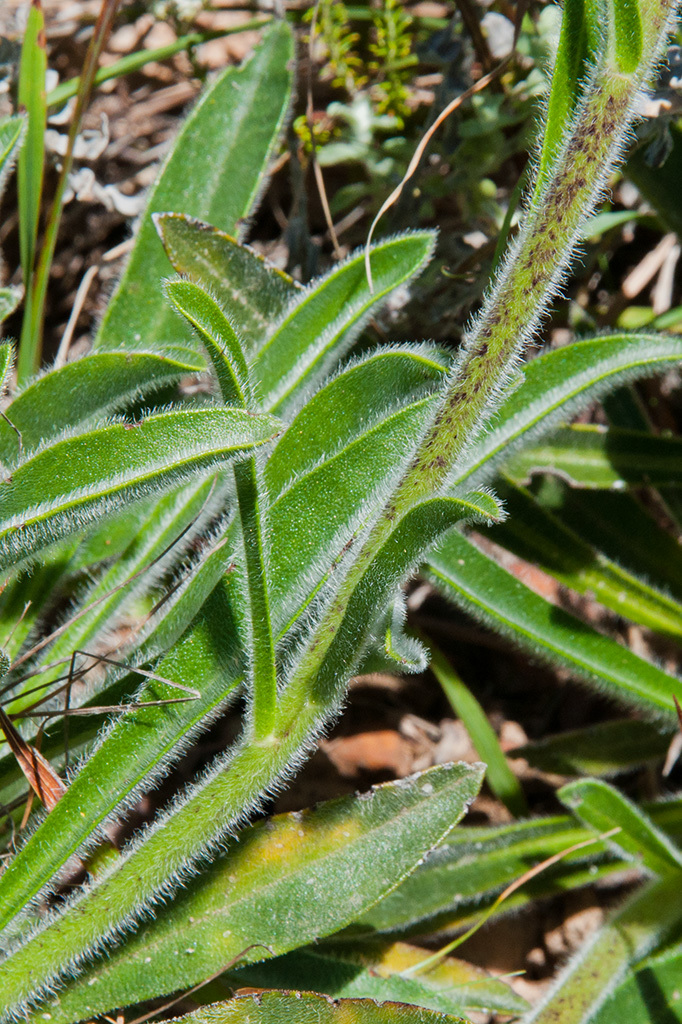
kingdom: Plantae
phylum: Tracheophyta
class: Magnoliopsida
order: Boraginales
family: Boraginaceae
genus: Lobostemon
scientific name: Lobostemon ecklonianus
